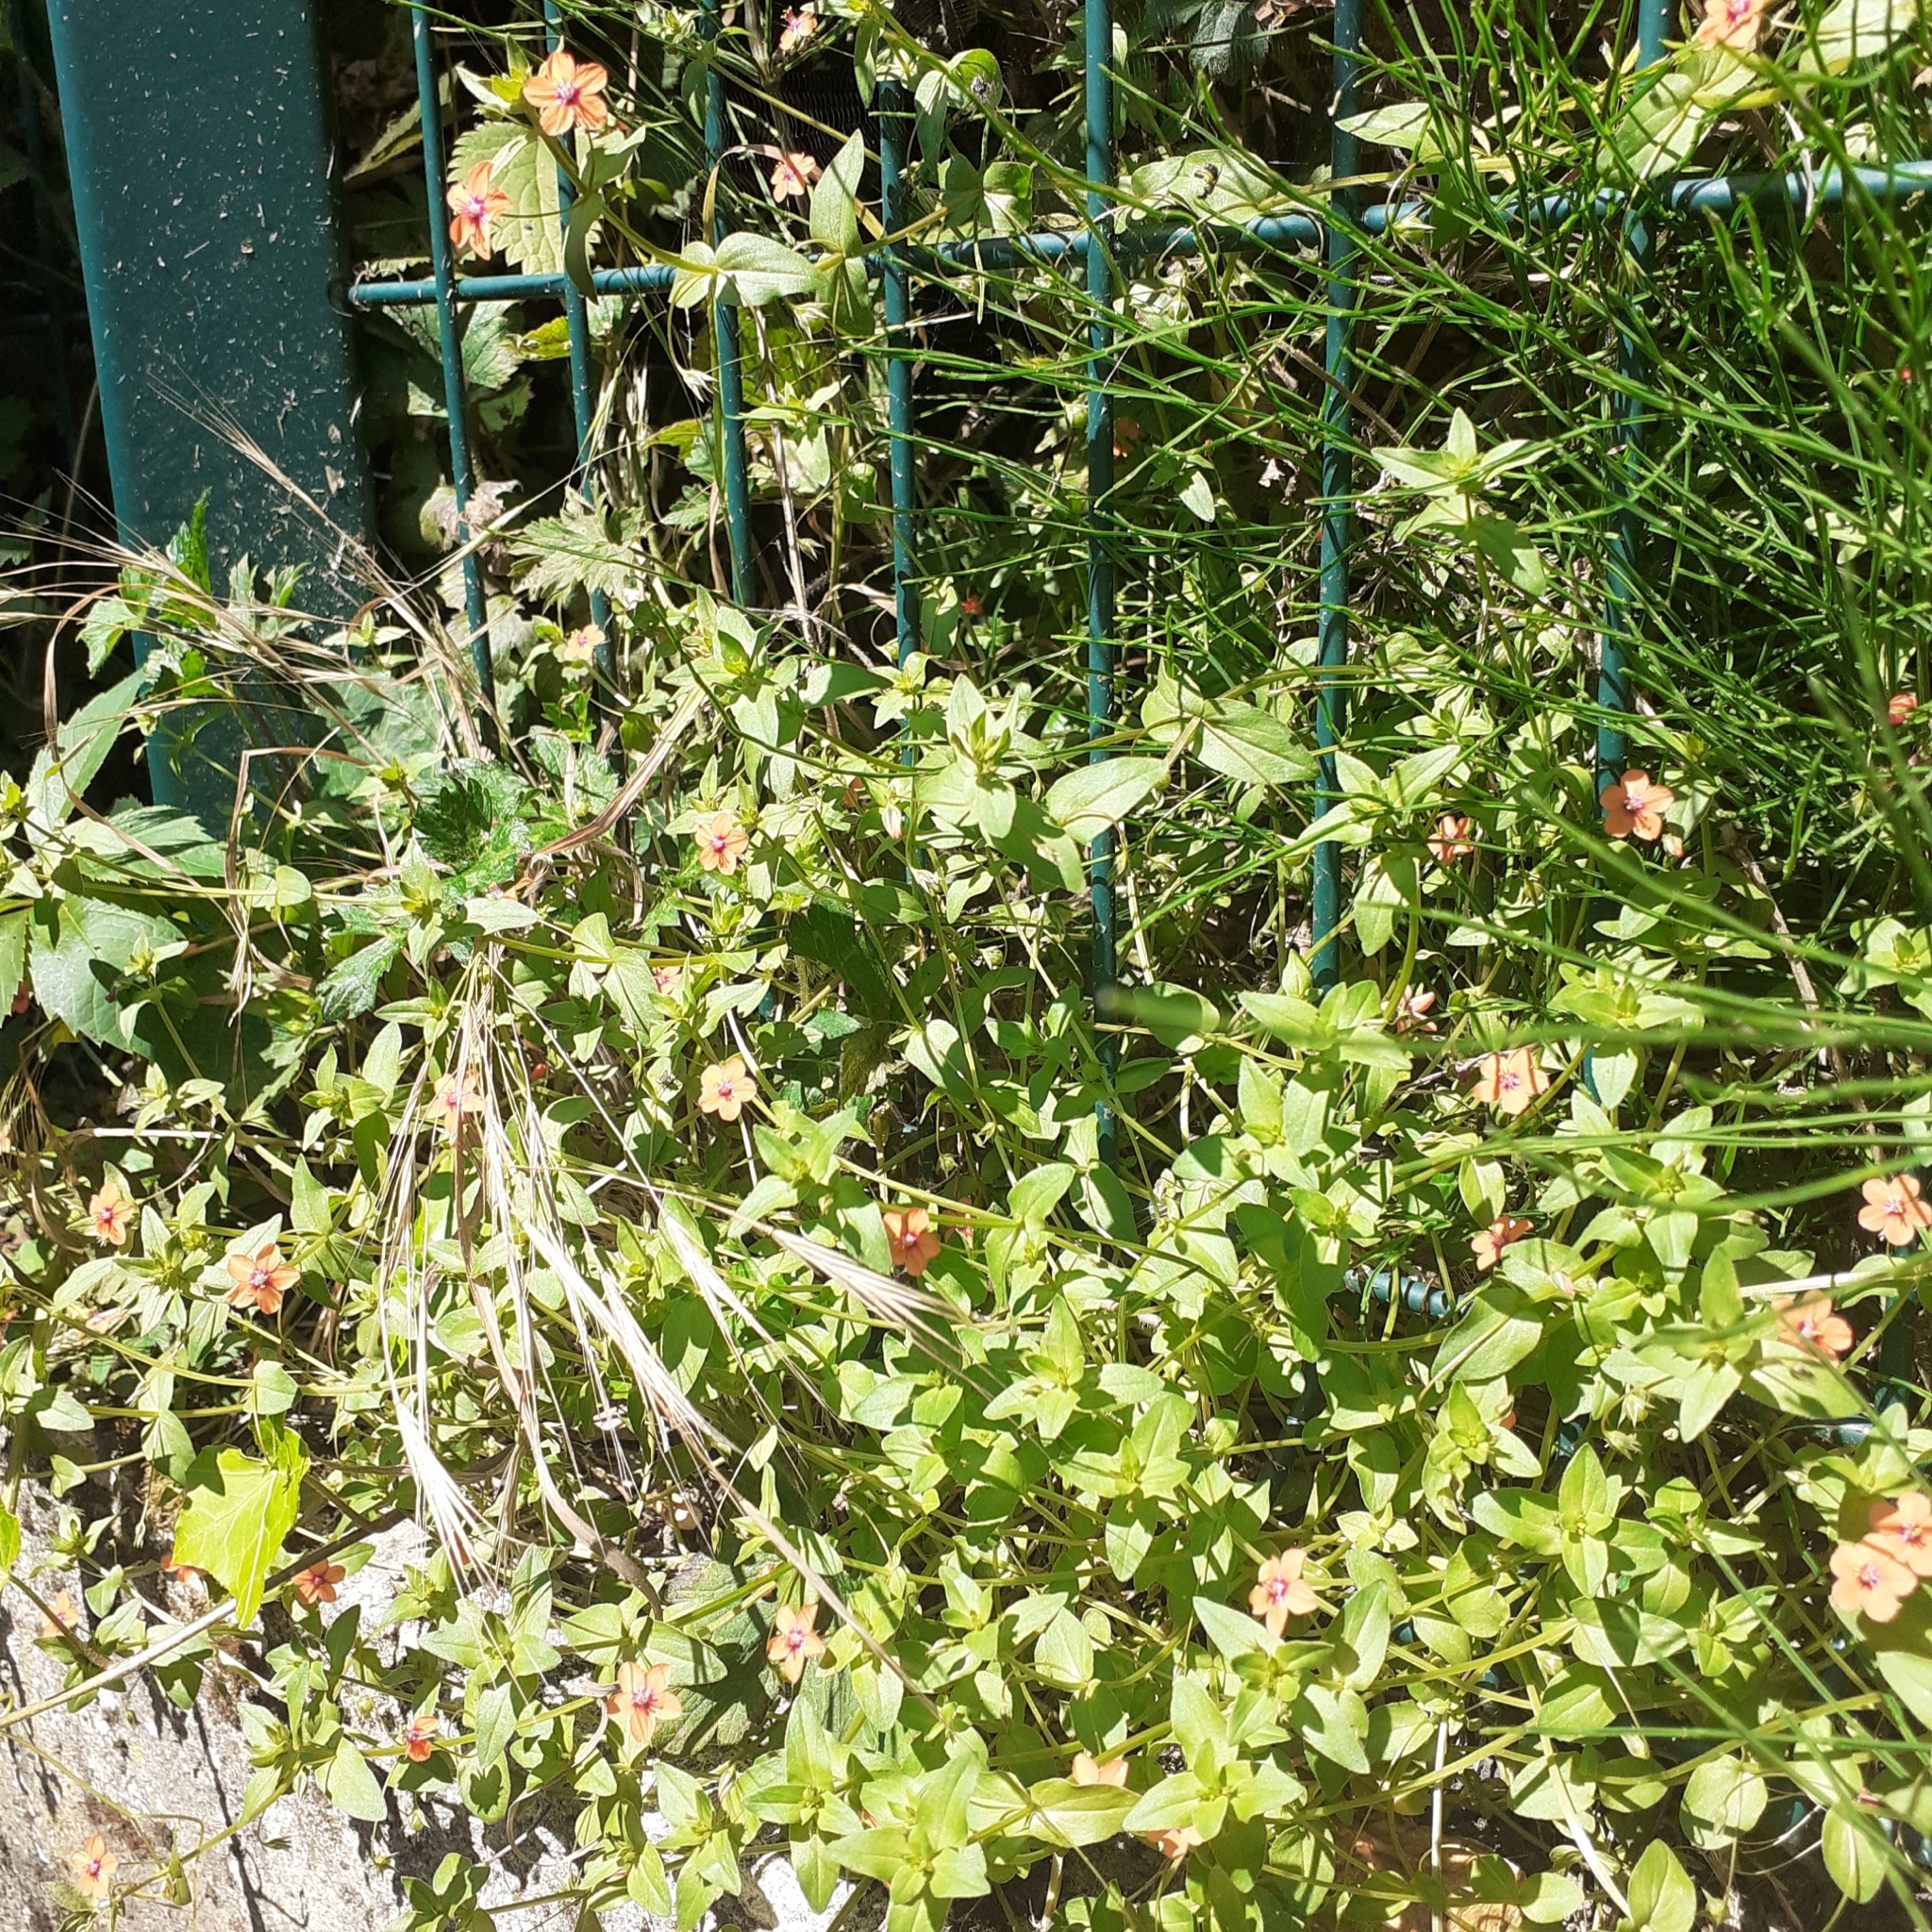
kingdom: Plantae
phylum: Tracheophyta
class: Magnoliopsida
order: Ericales
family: Primulaceae
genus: Lysimachia
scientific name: Lysimachia arvensis
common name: Scarlet pimpernel
